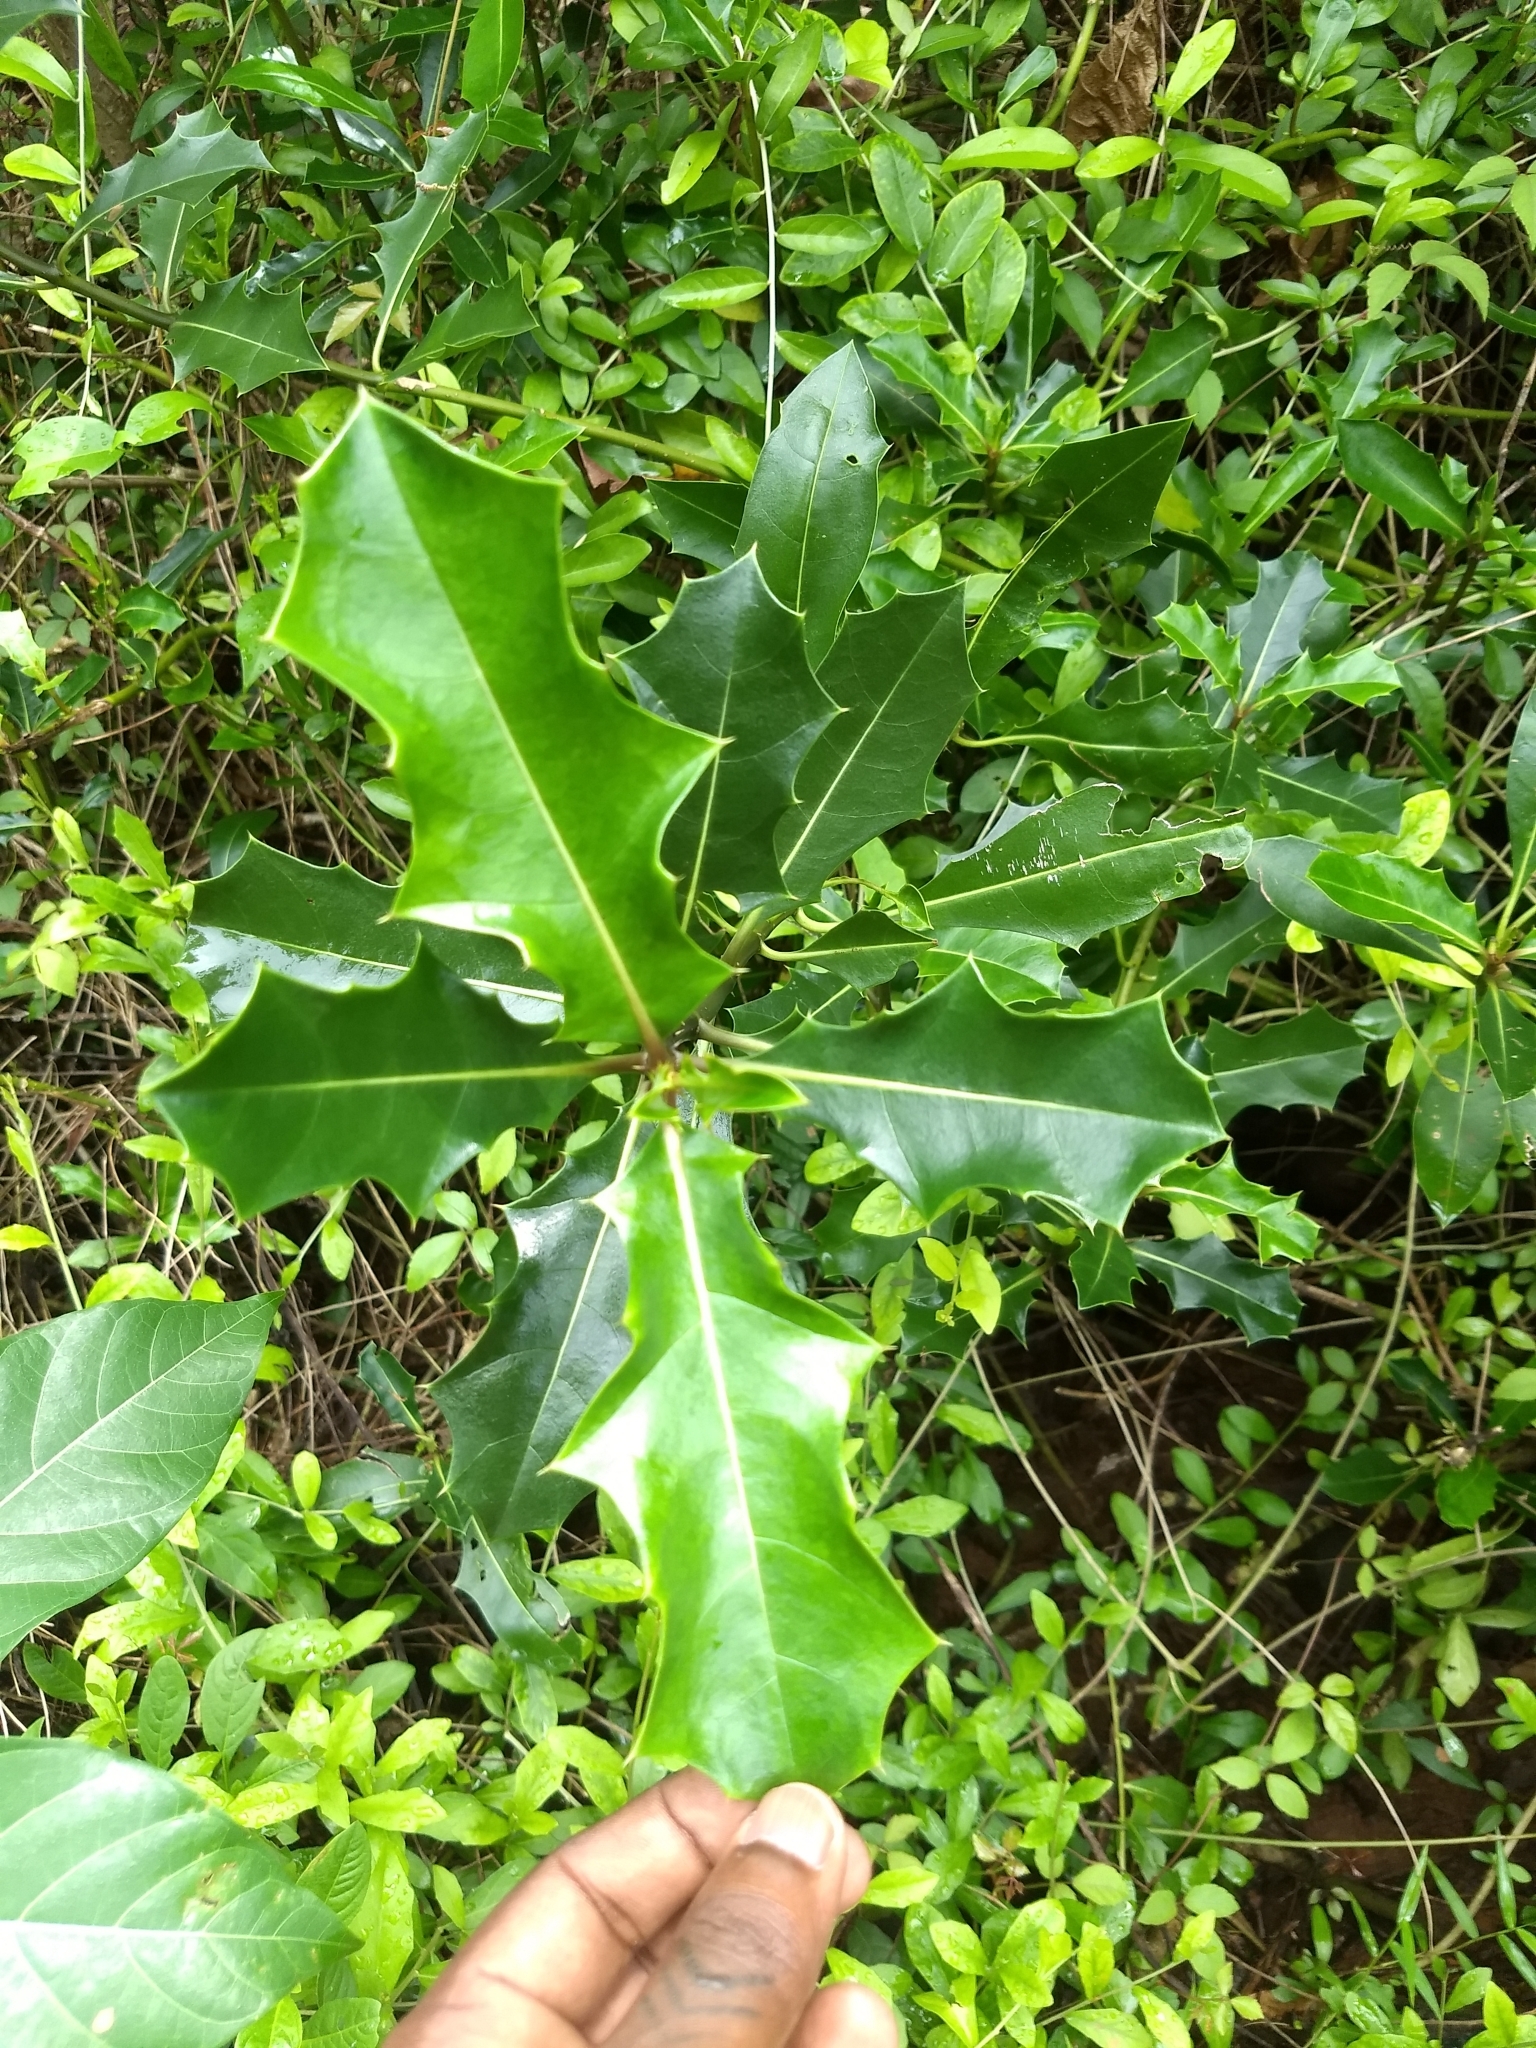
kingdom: Plantae
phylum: Tracheophyta
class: Magnoliopsida
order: Lamiales
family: Acanthaceae
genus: Acanthus
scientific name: Acanthus
